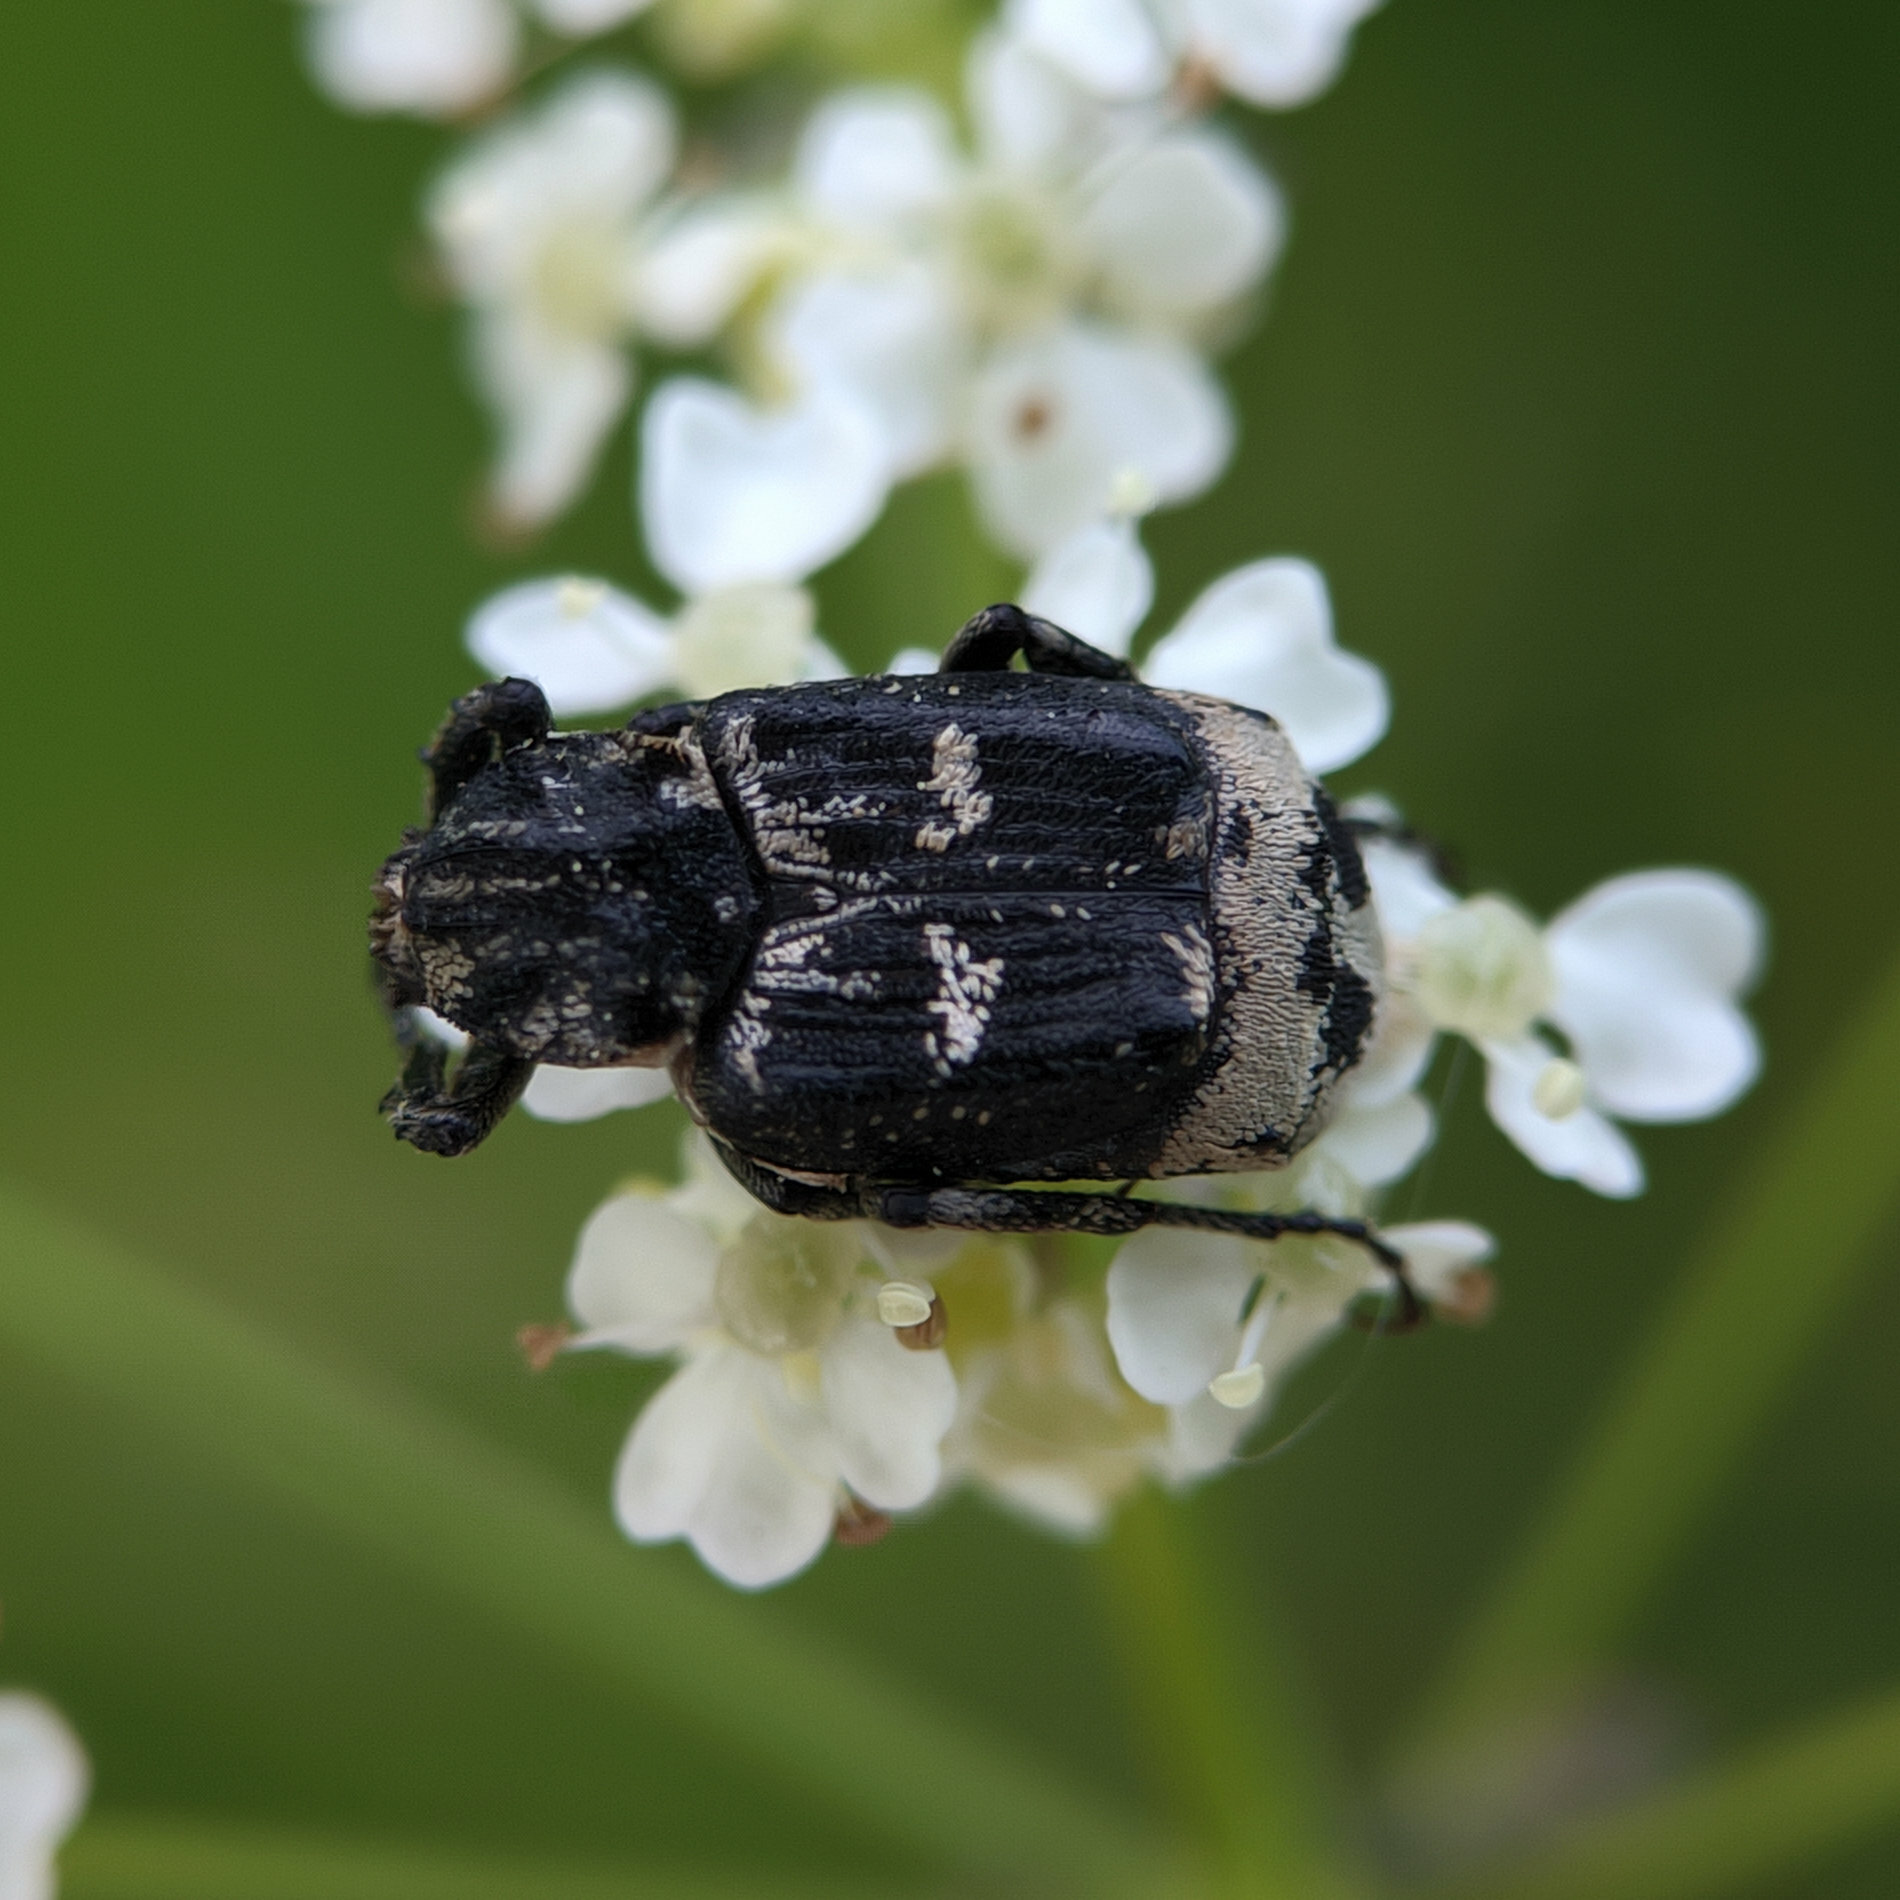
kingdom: Animalia
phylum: Arthropoda
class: Insecta
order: Coleoptera
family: Scarabaeidae
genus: Valgus
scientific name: Valgus hemipterus
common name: Bug flower chafer
